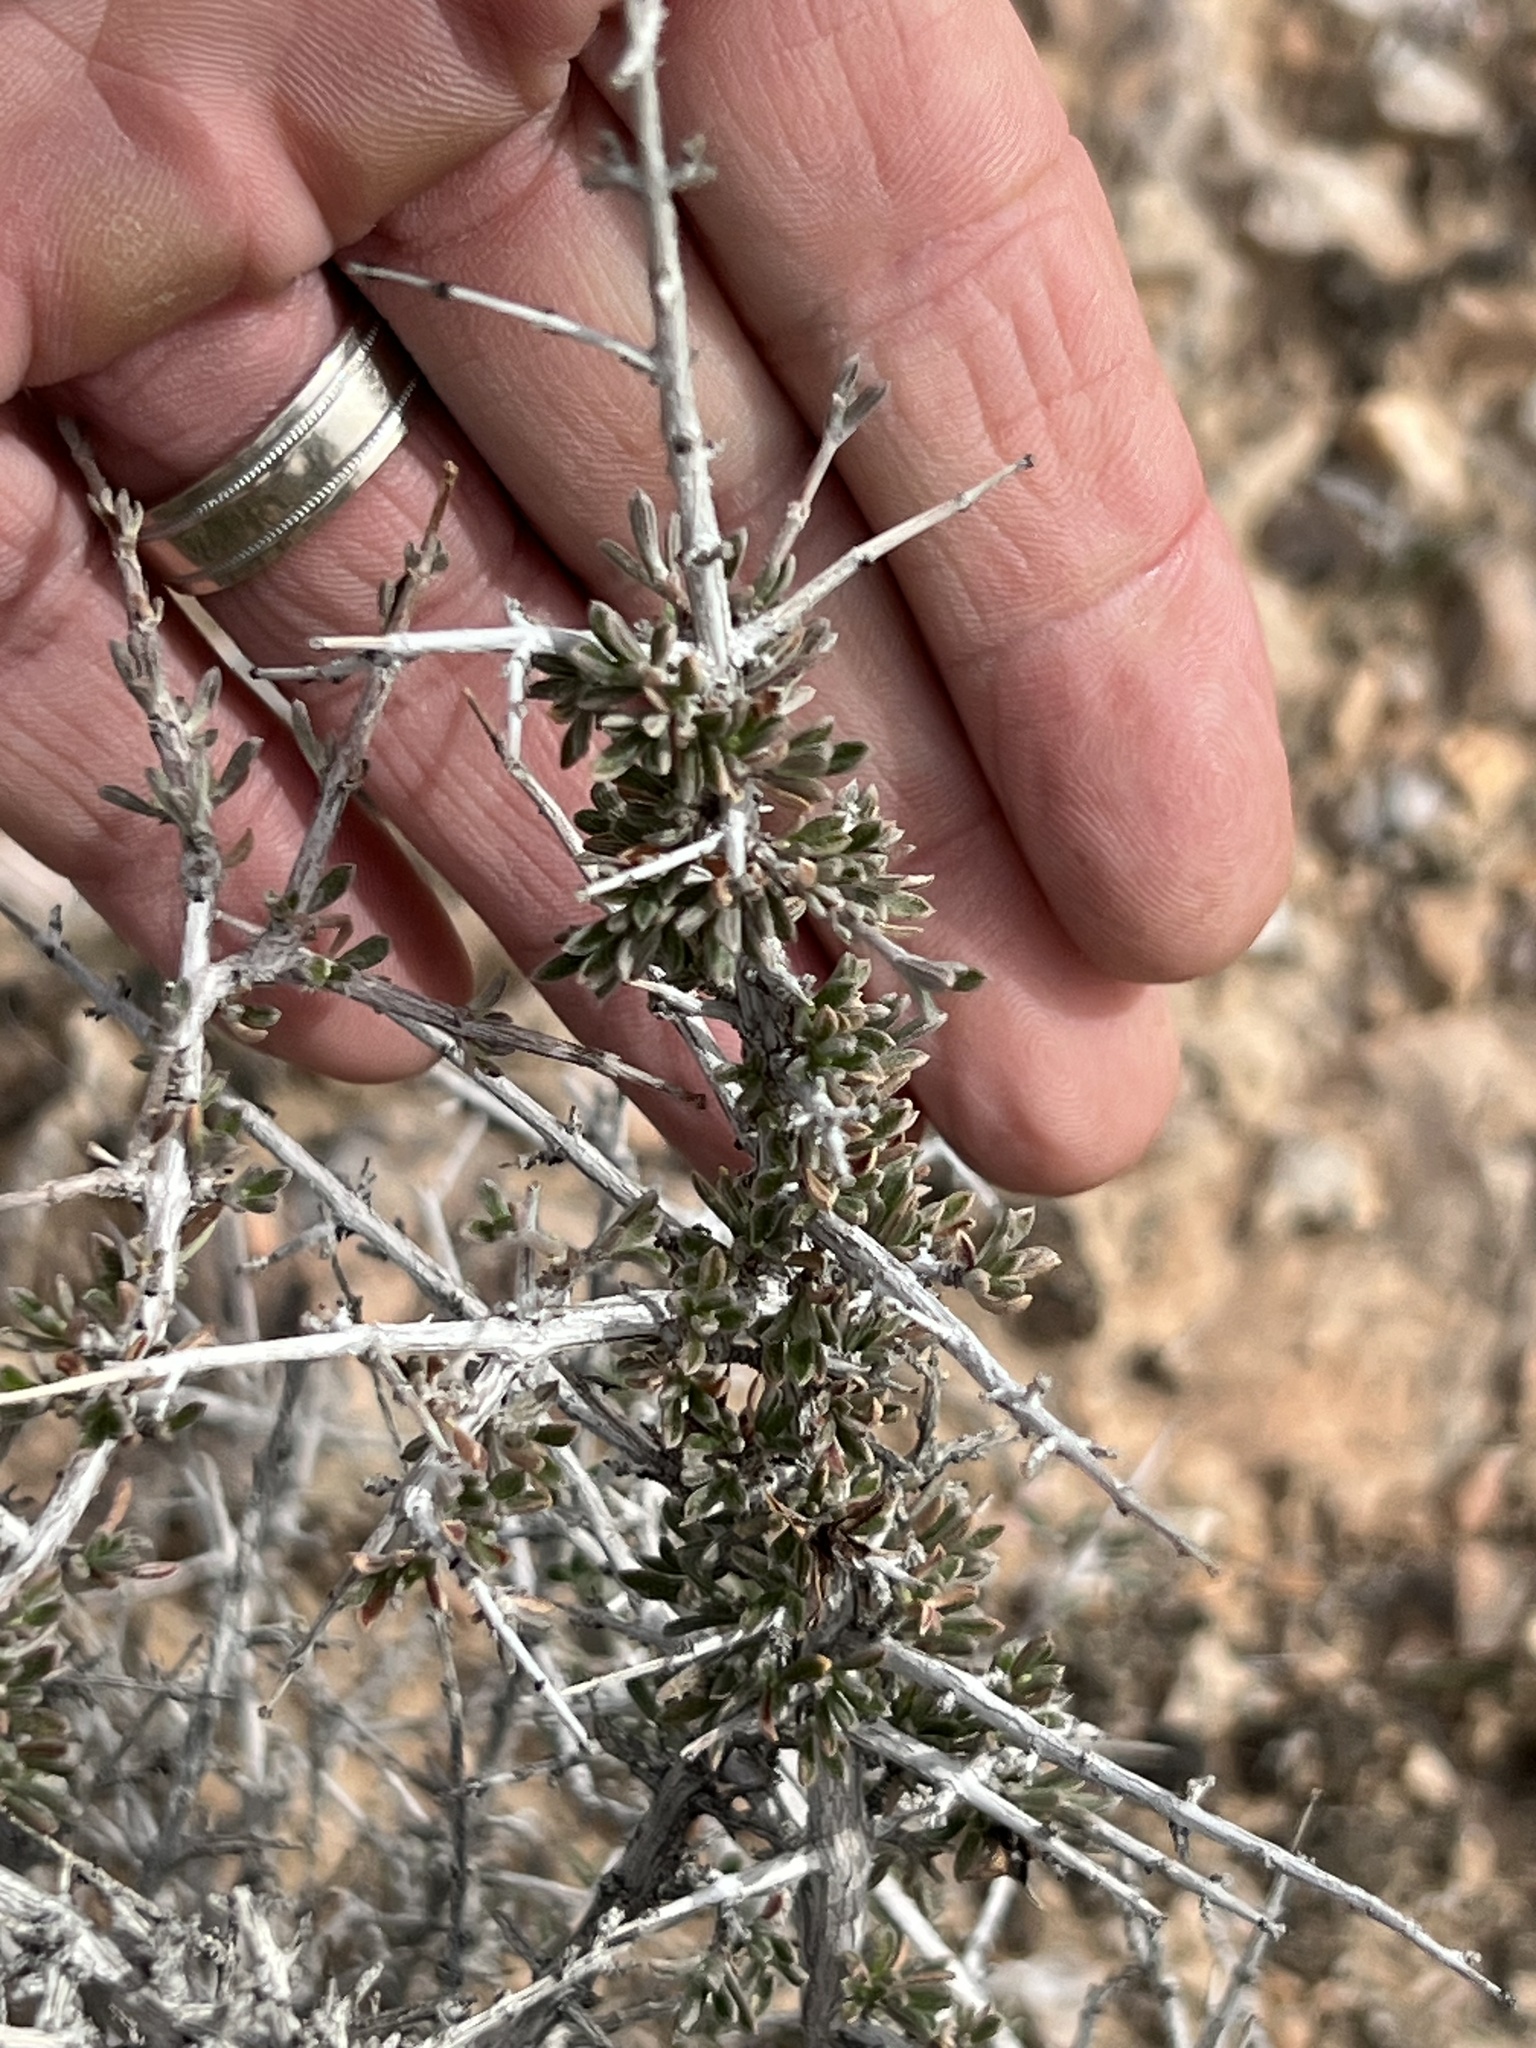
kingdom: Plantae
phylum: Tracheophyta
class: Magnoliopsida
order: Rosales
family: Rosaceae
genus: Coleogyne
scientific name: Coleogyne ramosissima
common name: Blackbrush
